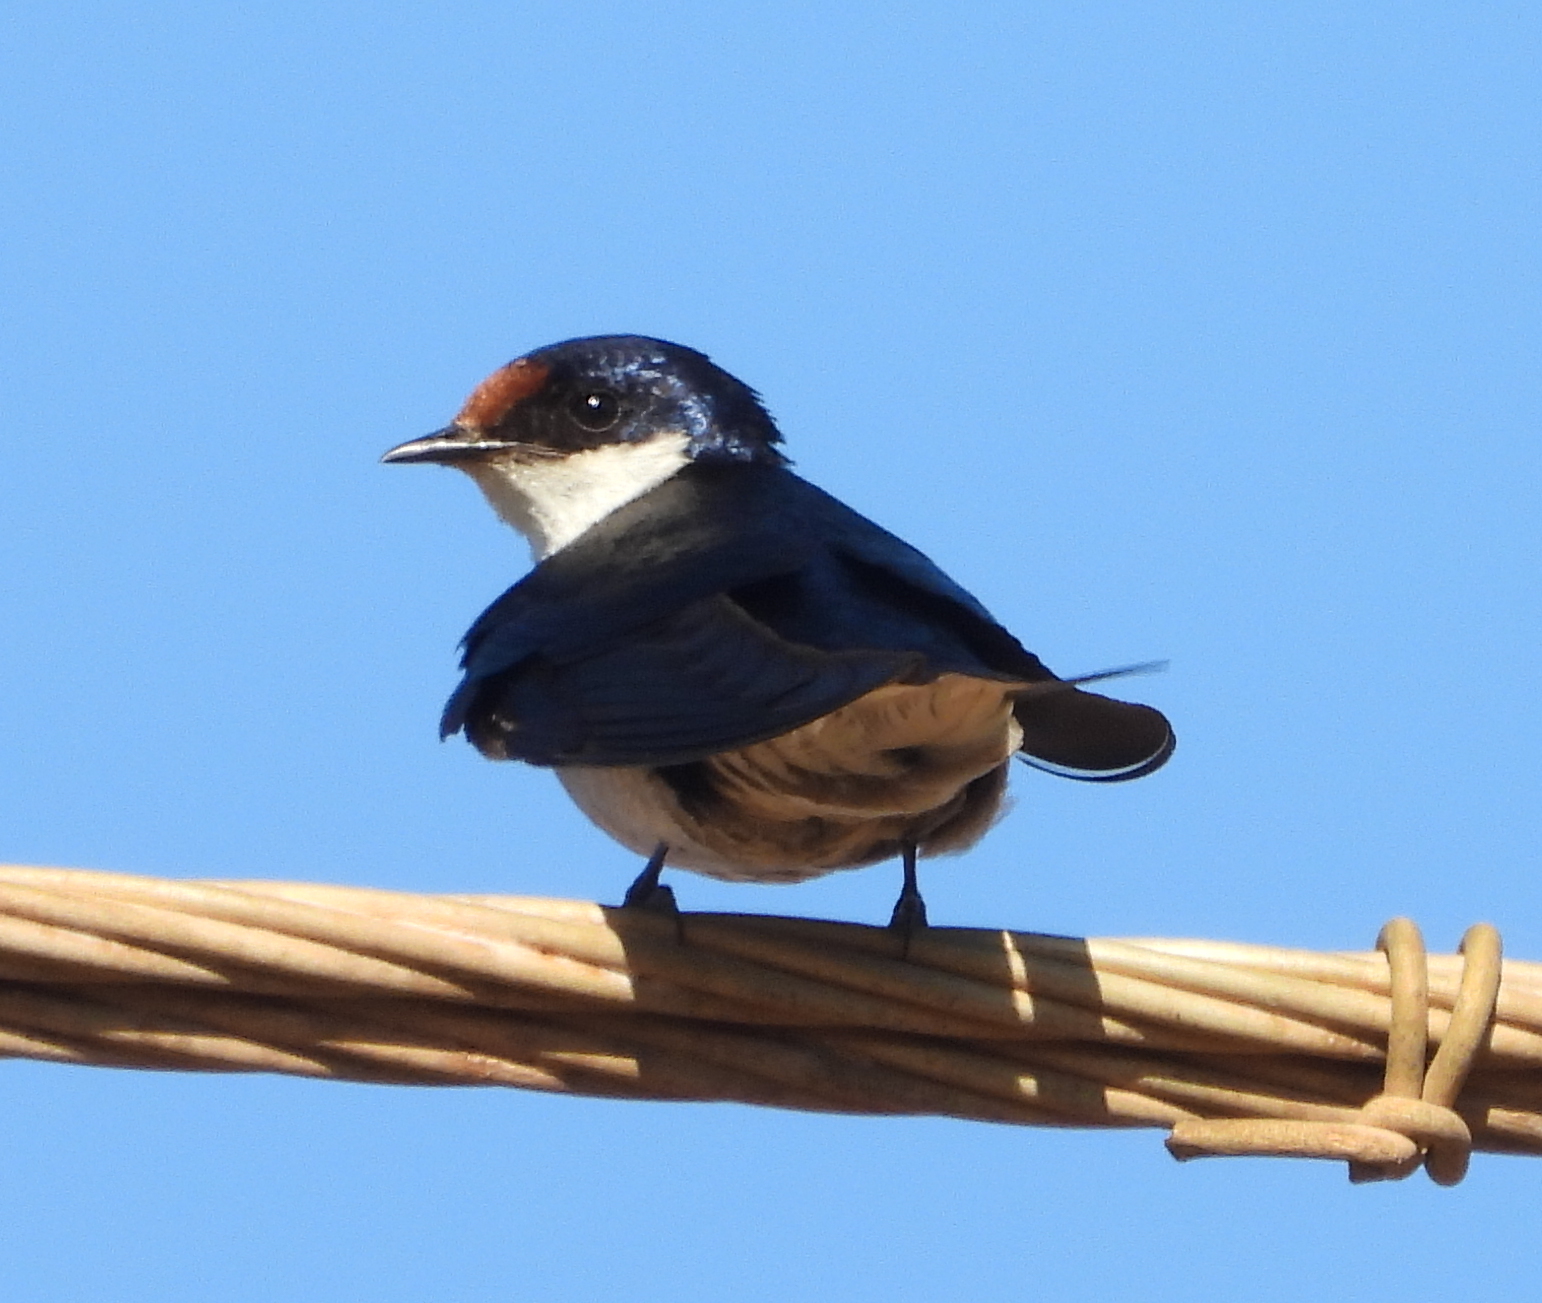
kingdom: Animalia
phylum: Chordata
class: Aves
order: Passeriformes
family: Hirundinidae
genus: Hirundo
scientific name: Hirundo albigularis
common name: White-throated swallow
